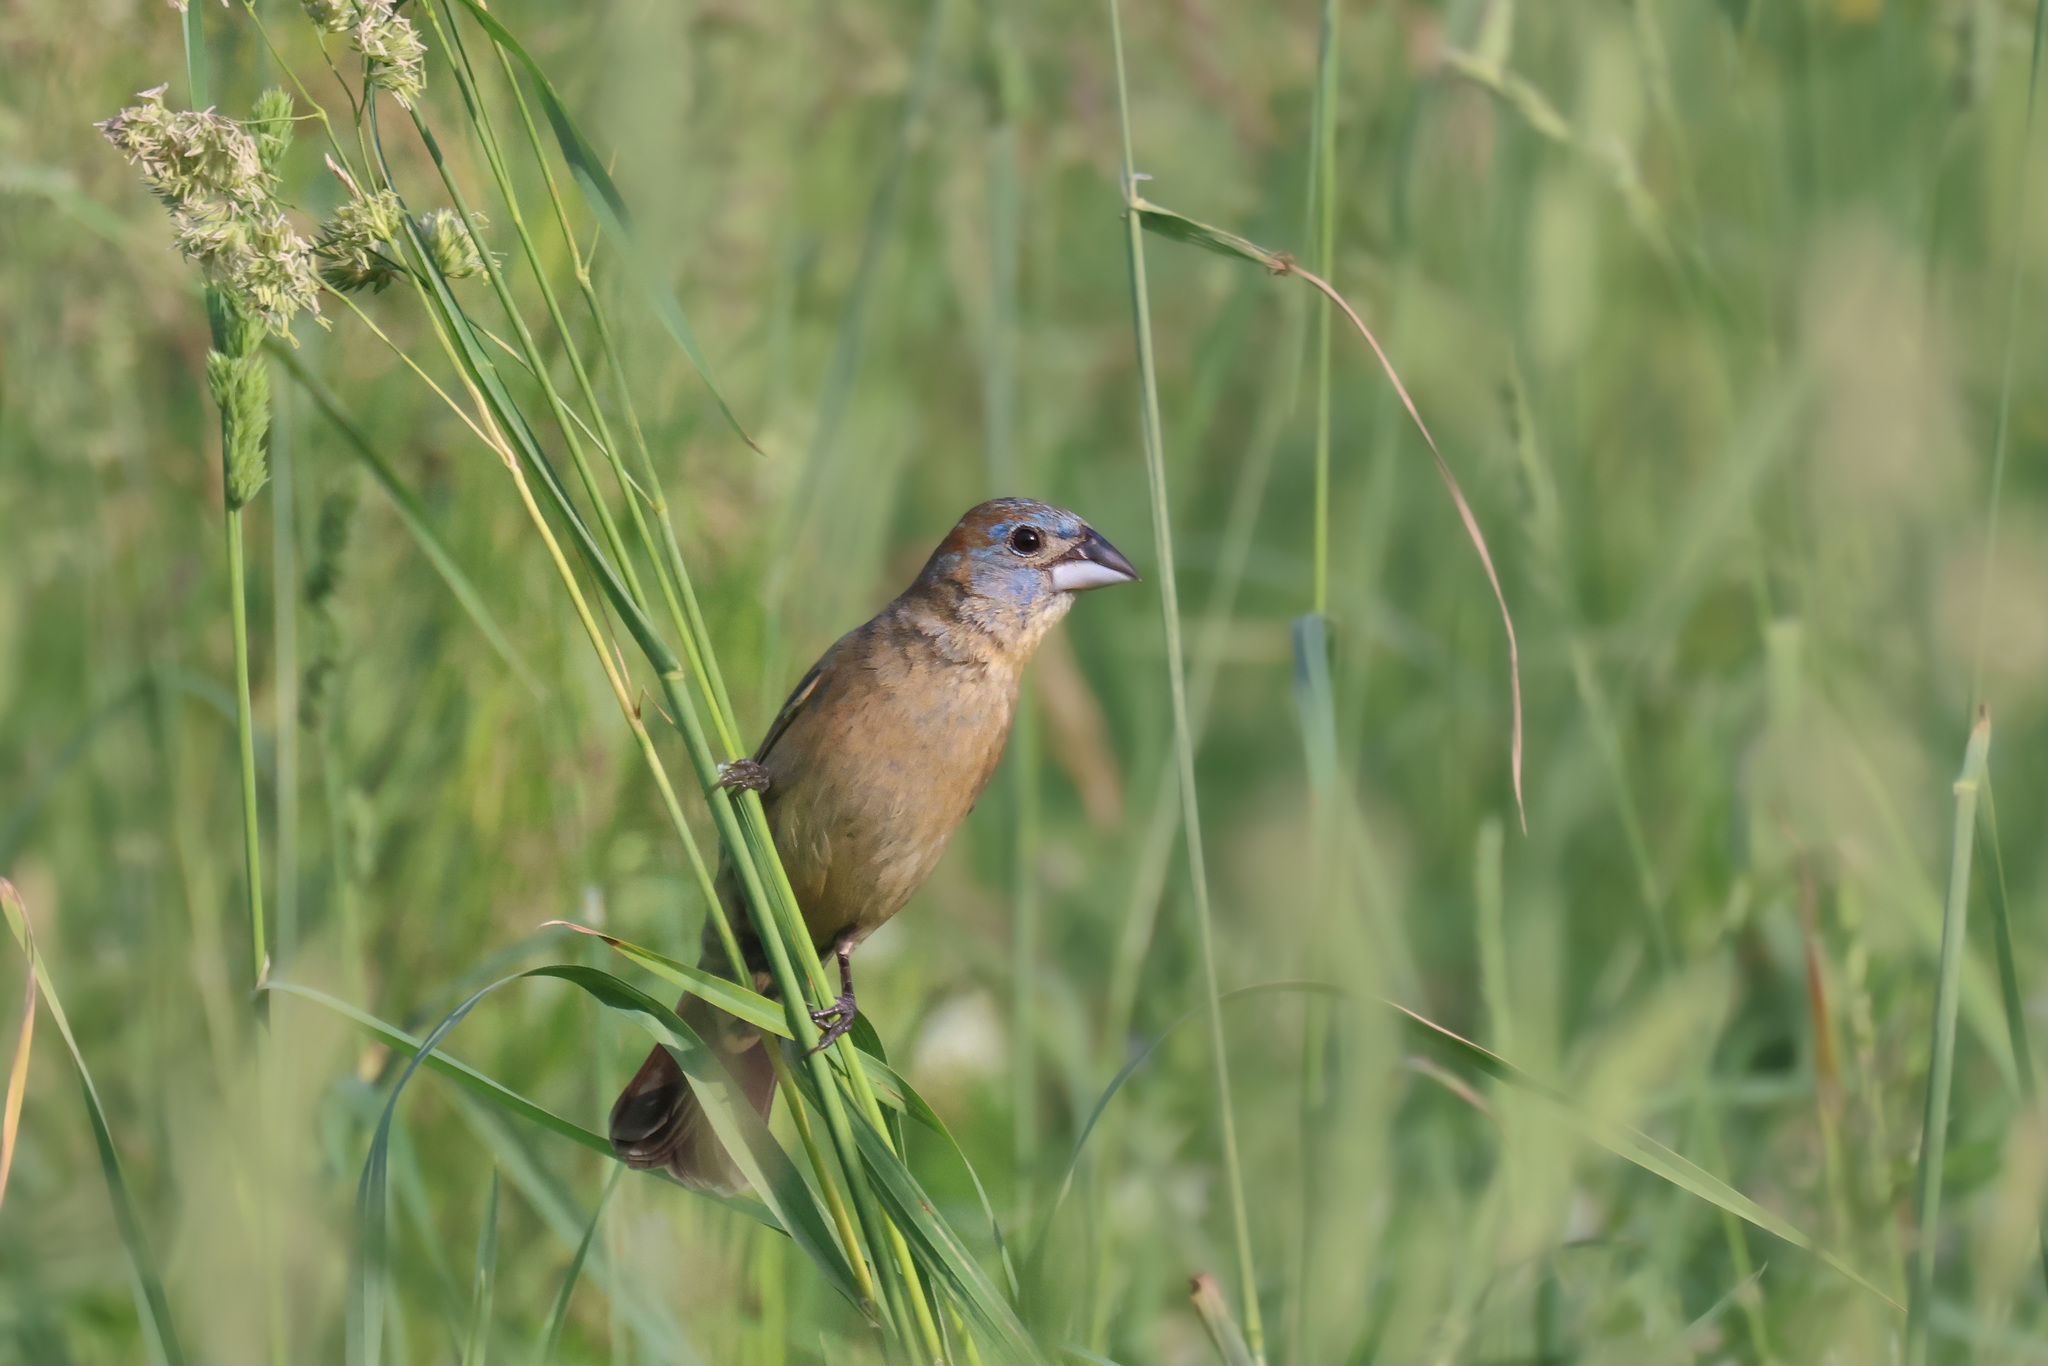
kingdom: Animalia
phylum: Chordata
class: Aves
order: Passeriformes
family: Cardinalidae
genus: Passerina
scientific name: Passerina caerulea
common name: Blue grosbeak
